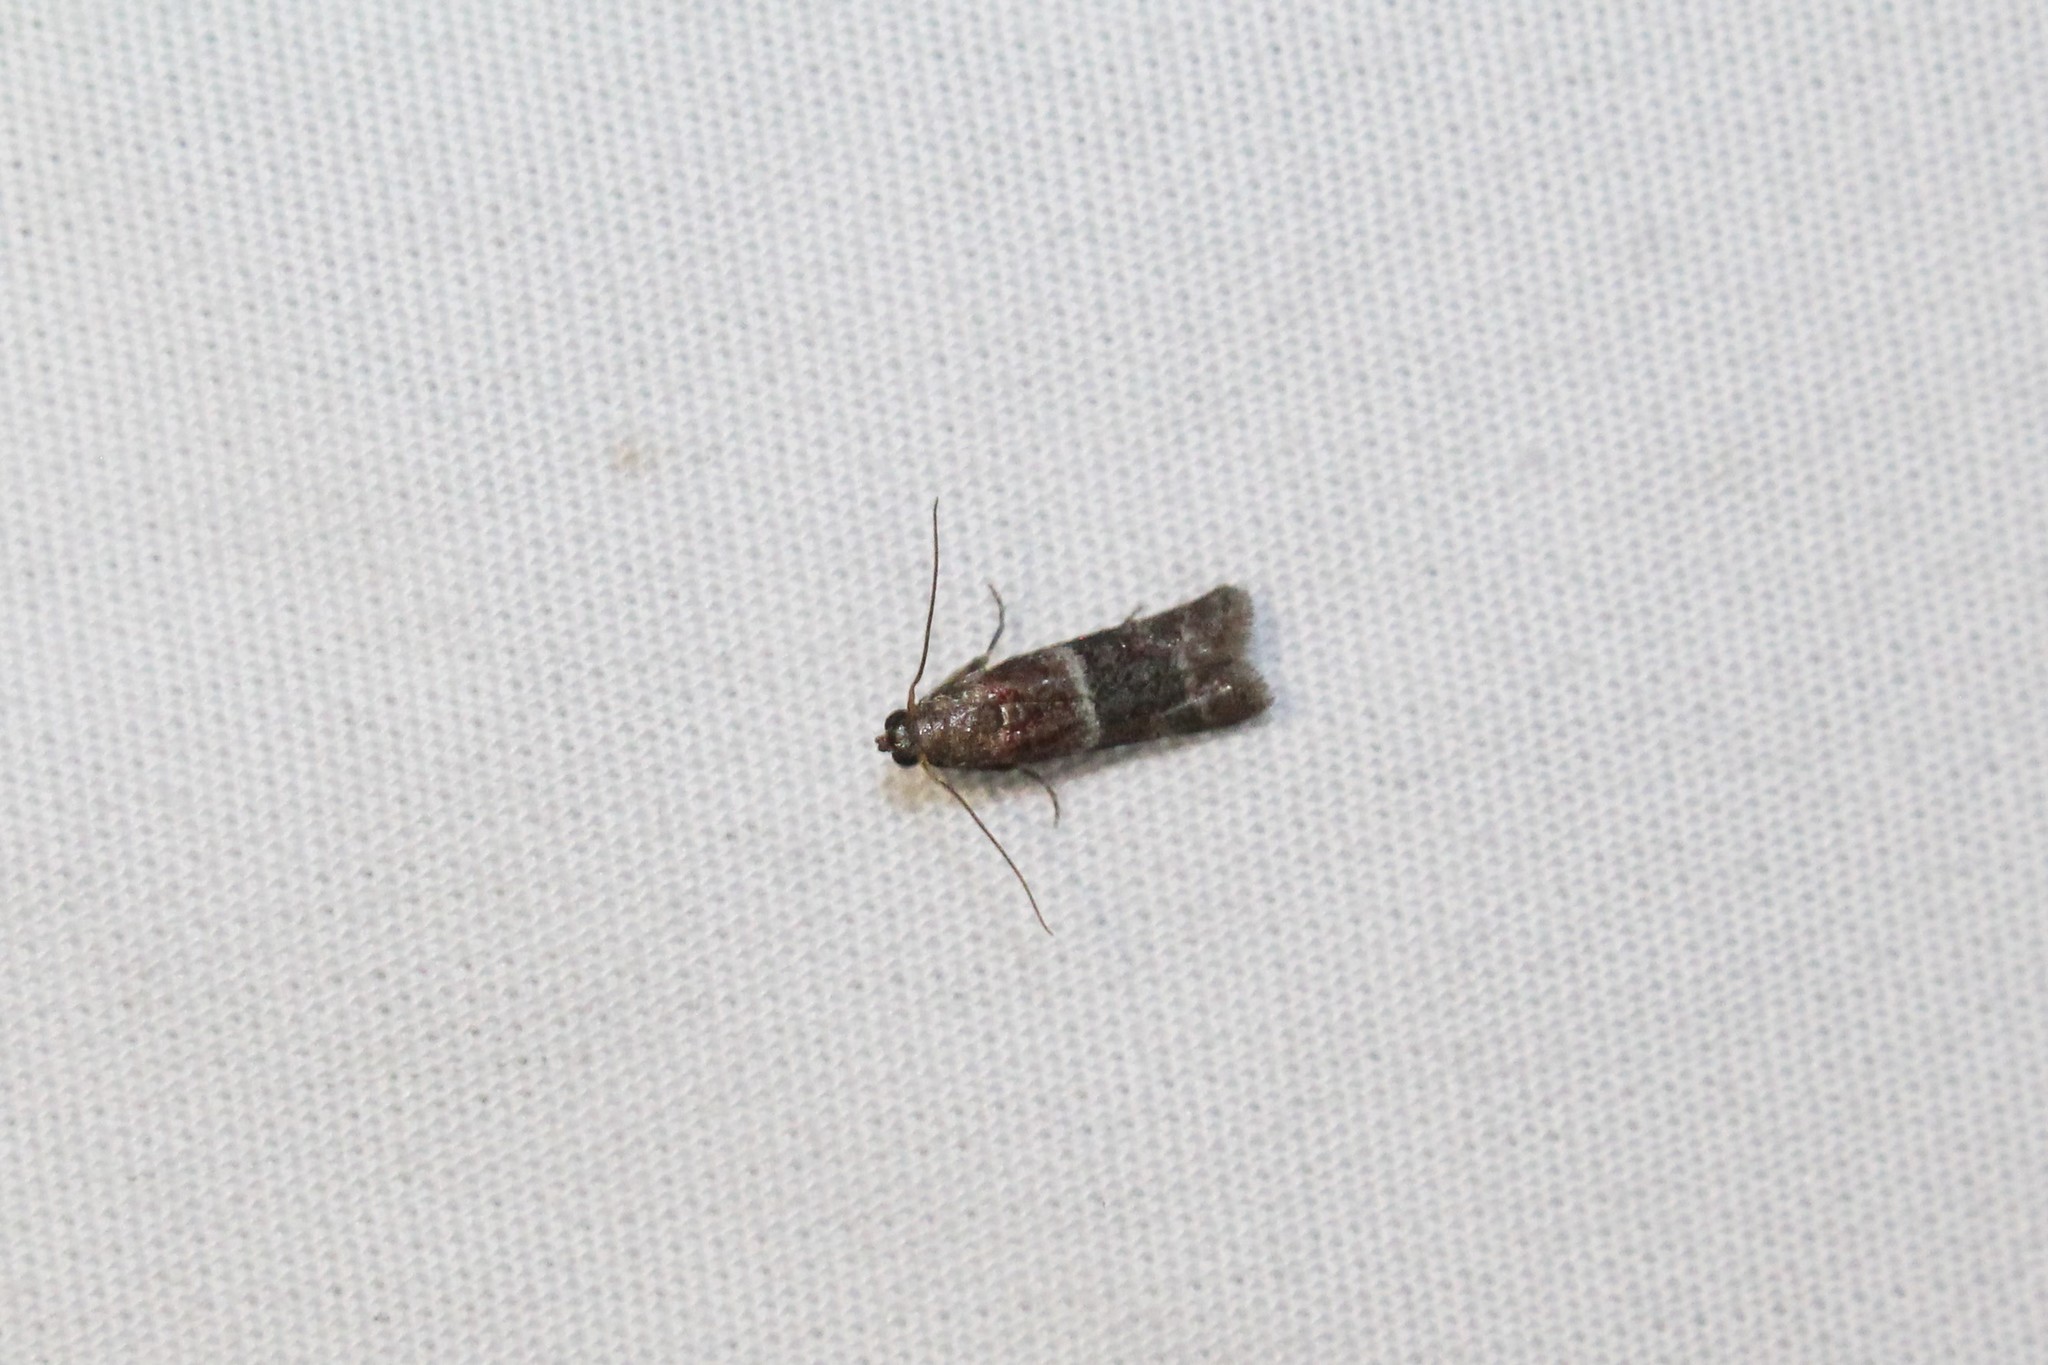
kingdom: Animalia
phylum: Arthropoda
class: Insecta
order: Lepidoptera
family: Pyralidae
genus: Moodna
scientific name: Moodna ostrinella
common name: Darker moodna moth
